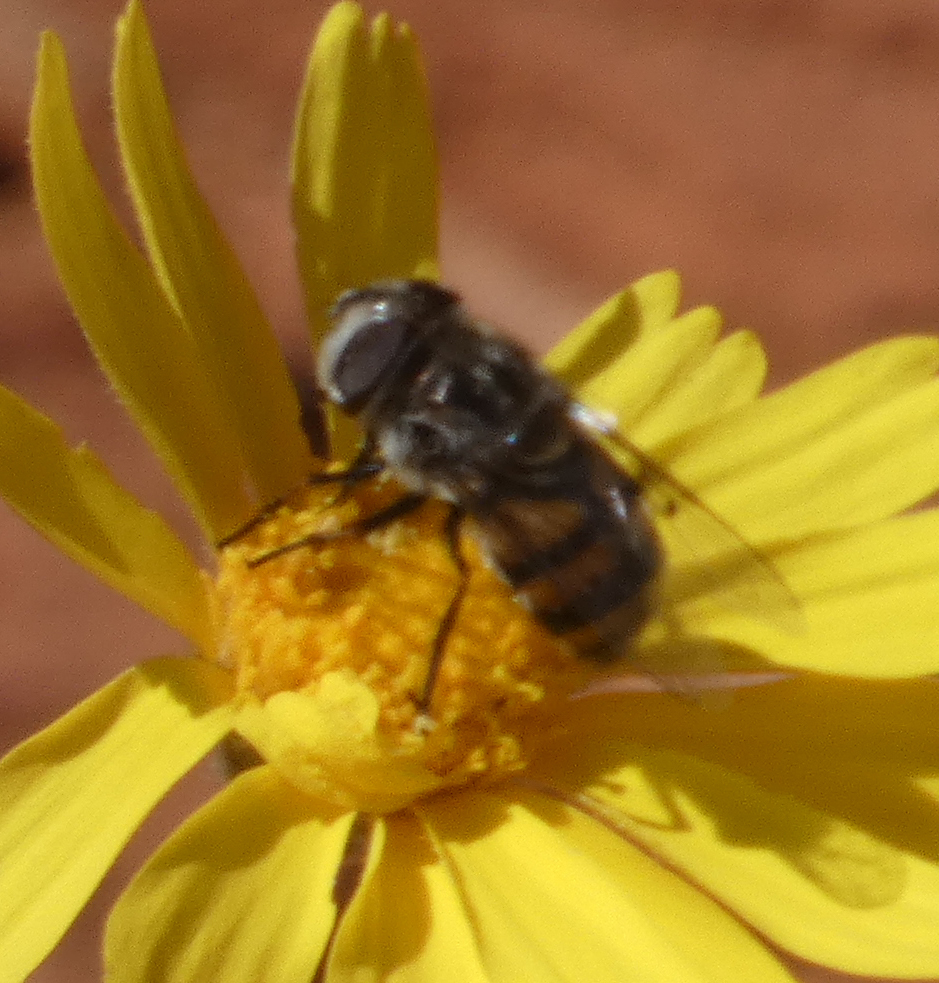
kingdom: Animalia
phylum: Arthropoda
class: Insecta
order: Diptera
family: Syrphidae
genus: Copestylum
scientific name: Copestylum avidum
